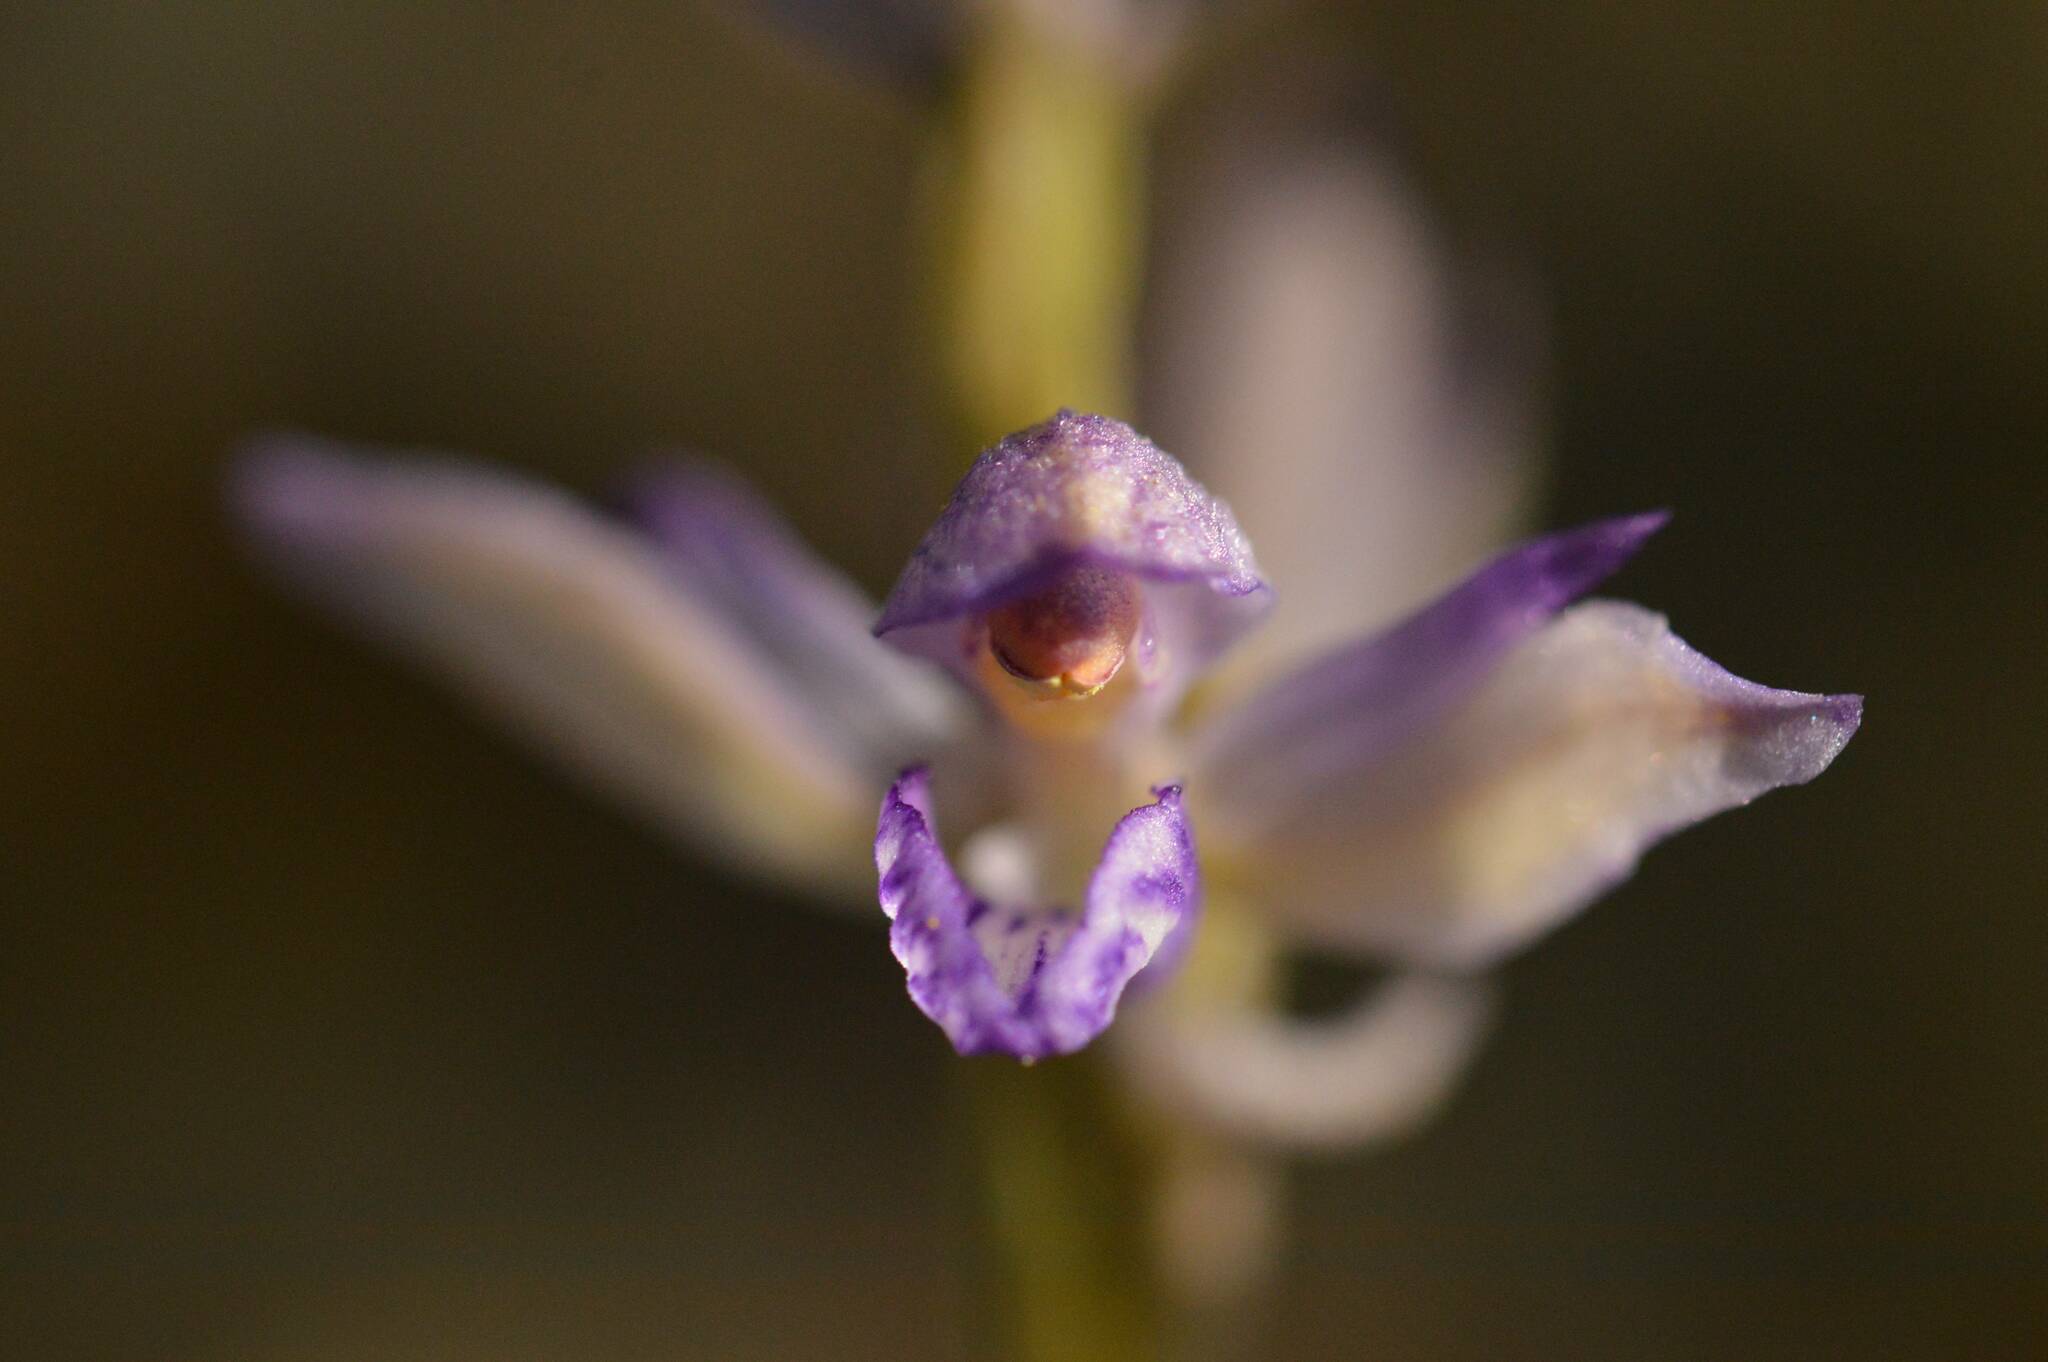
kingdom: Plantae
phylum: Tracheophyta
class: Liliopsida
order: Asparagales
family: Orchidaceae
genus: Limodorum
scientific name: Limodorum abortivum
